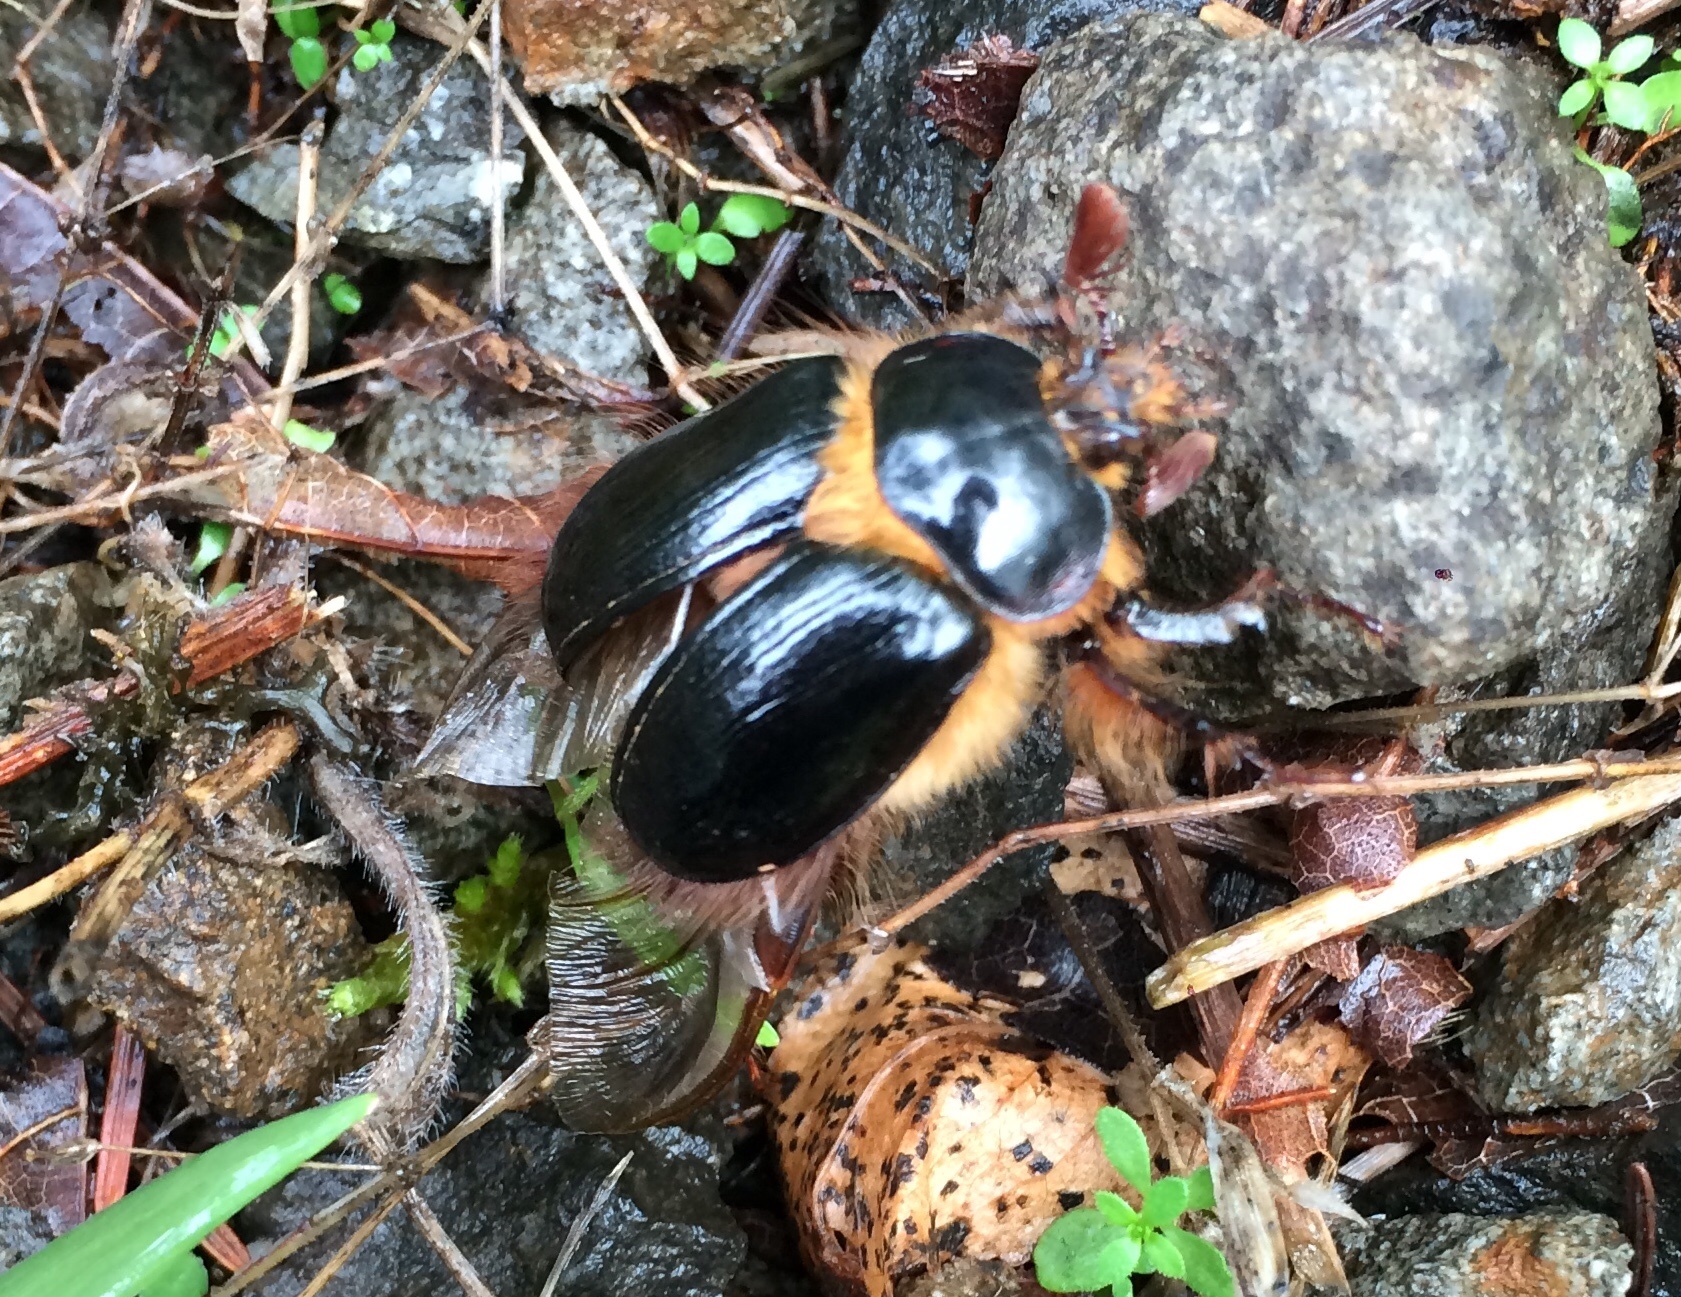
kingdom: Animalia
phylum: Arthropoda
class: Insecta
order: Coleoptera
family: Pleocomidae
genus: Pleocoma
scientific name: Pleocoma dubitabilis
